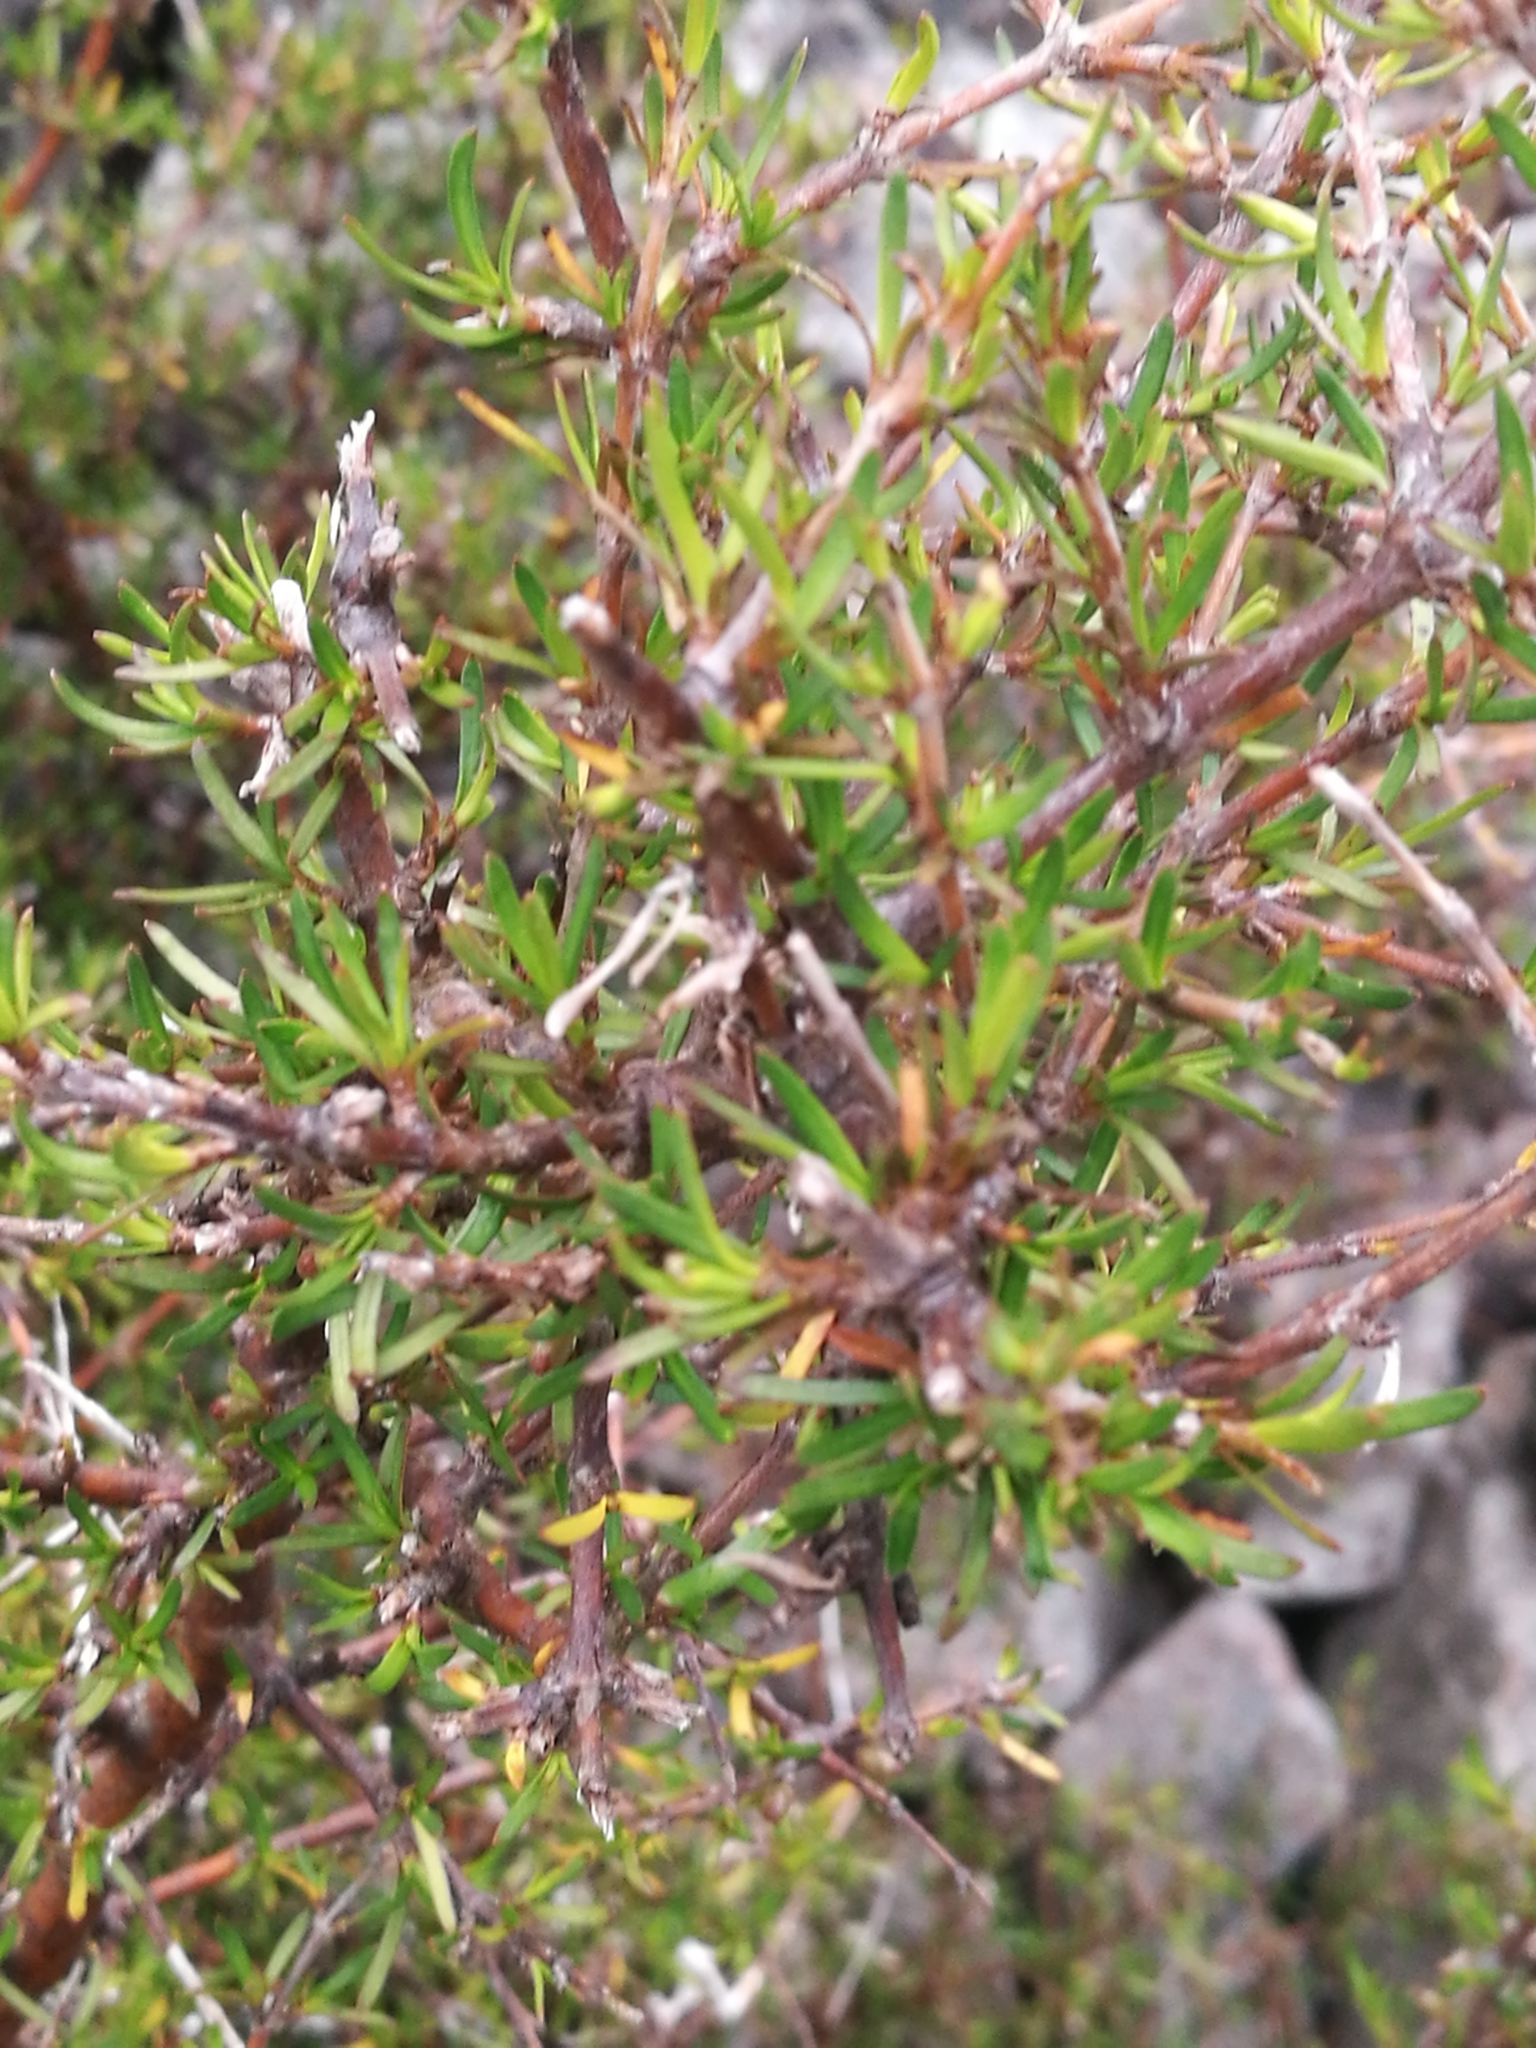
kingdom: Plantae
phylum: Tracheophyta
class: Magnoliopsida
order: Gentianales
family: Rubiaceae
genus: Coprosma
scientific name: Coprosma rugosa
